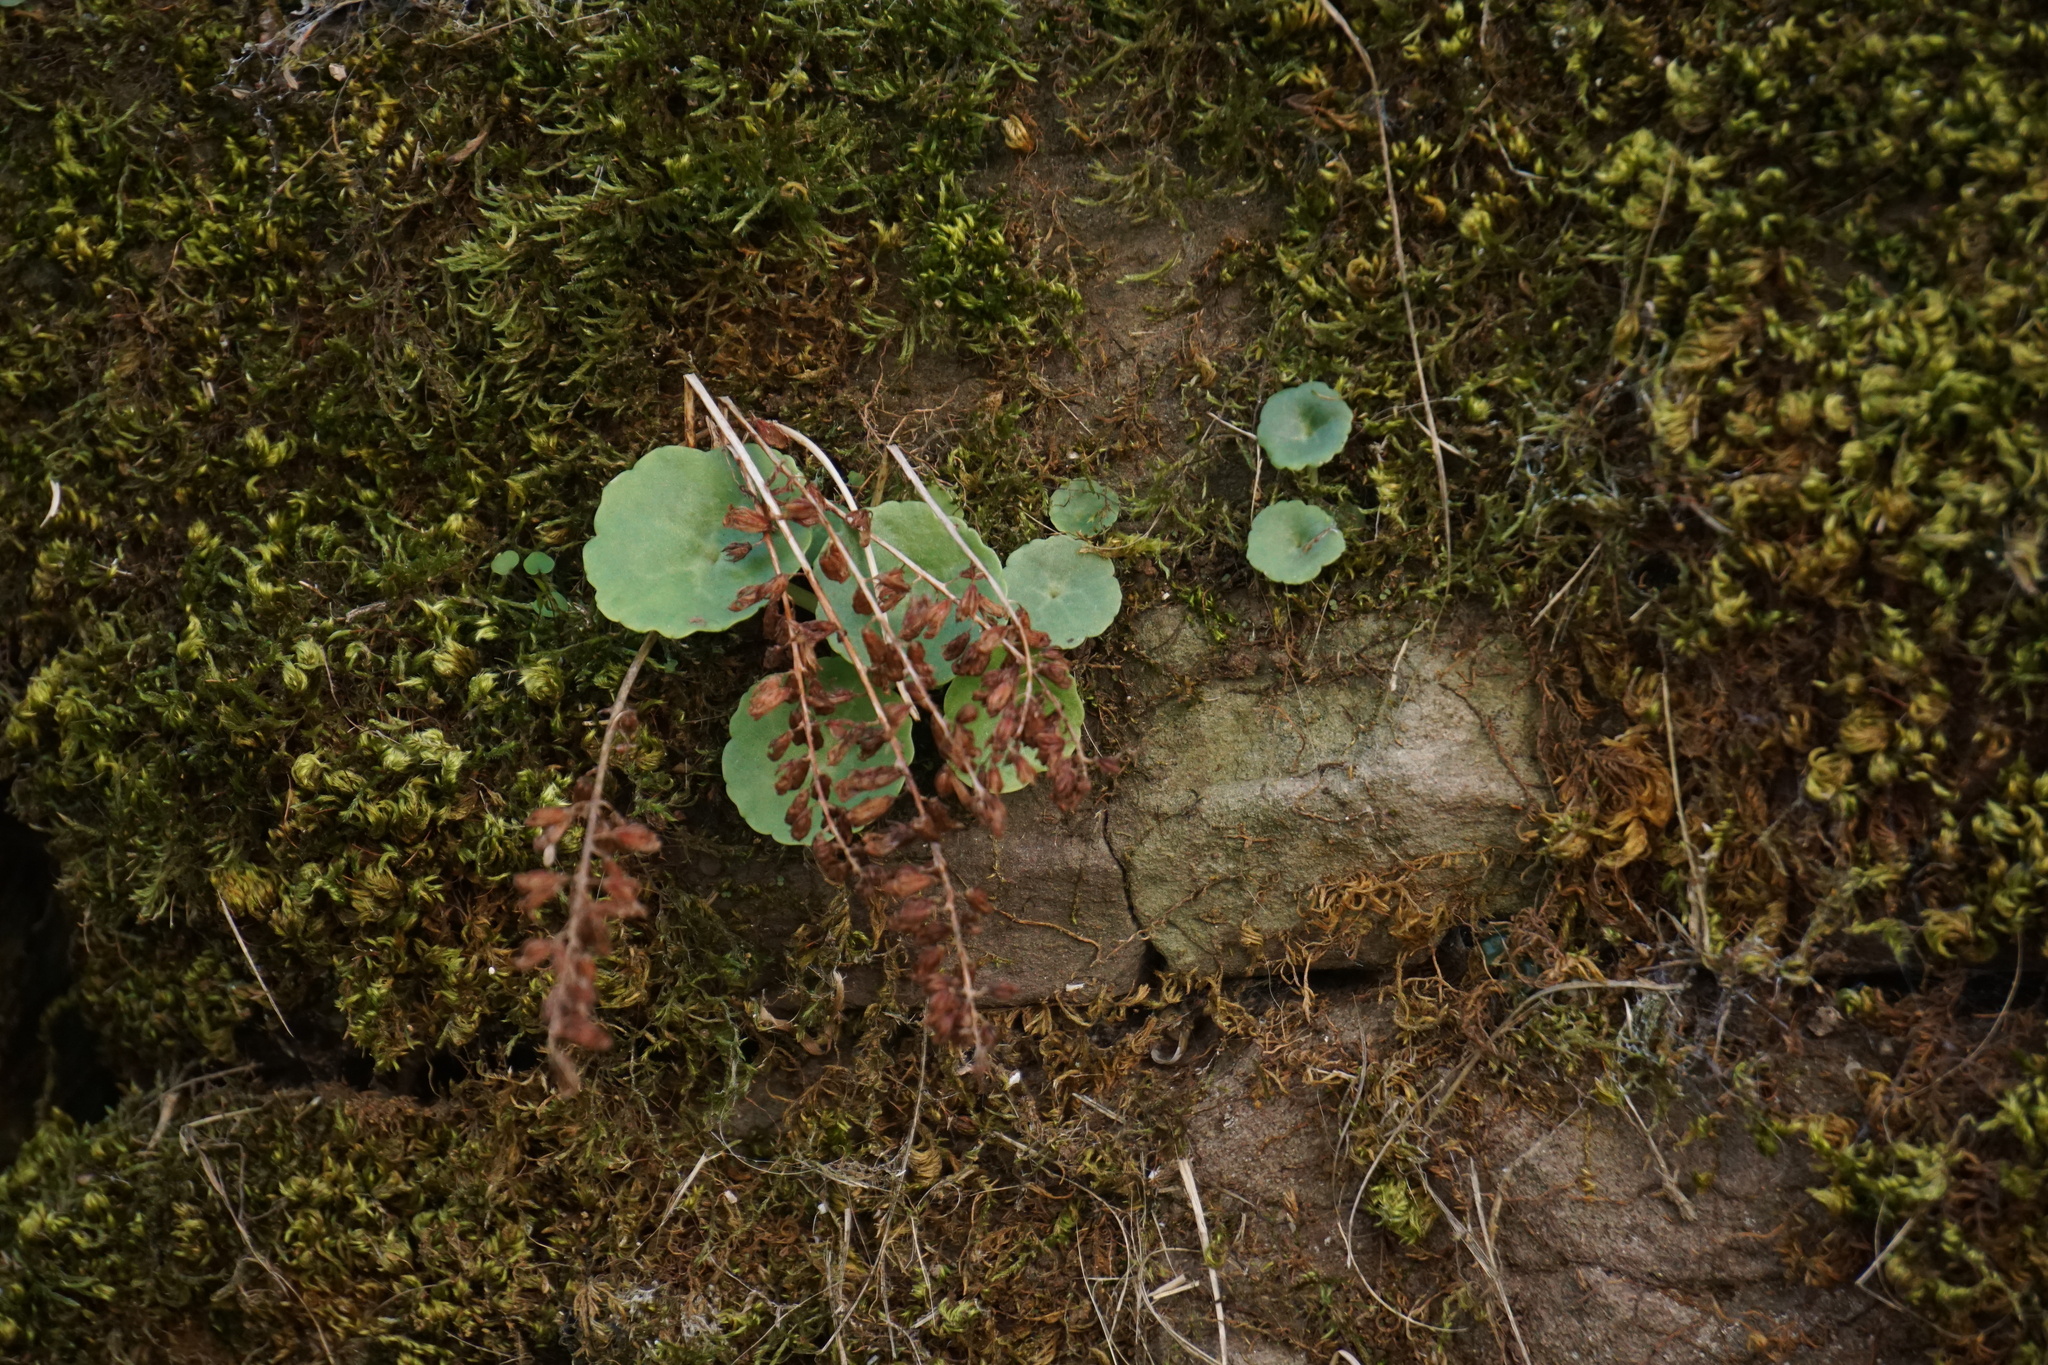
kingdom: Plantae
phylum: Tracheophyta
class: Magnoliopsida
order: Saxifragales
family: Crassulaceae
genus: Umbilicus
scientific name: Umbilicus rupestris
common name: Navelwort
